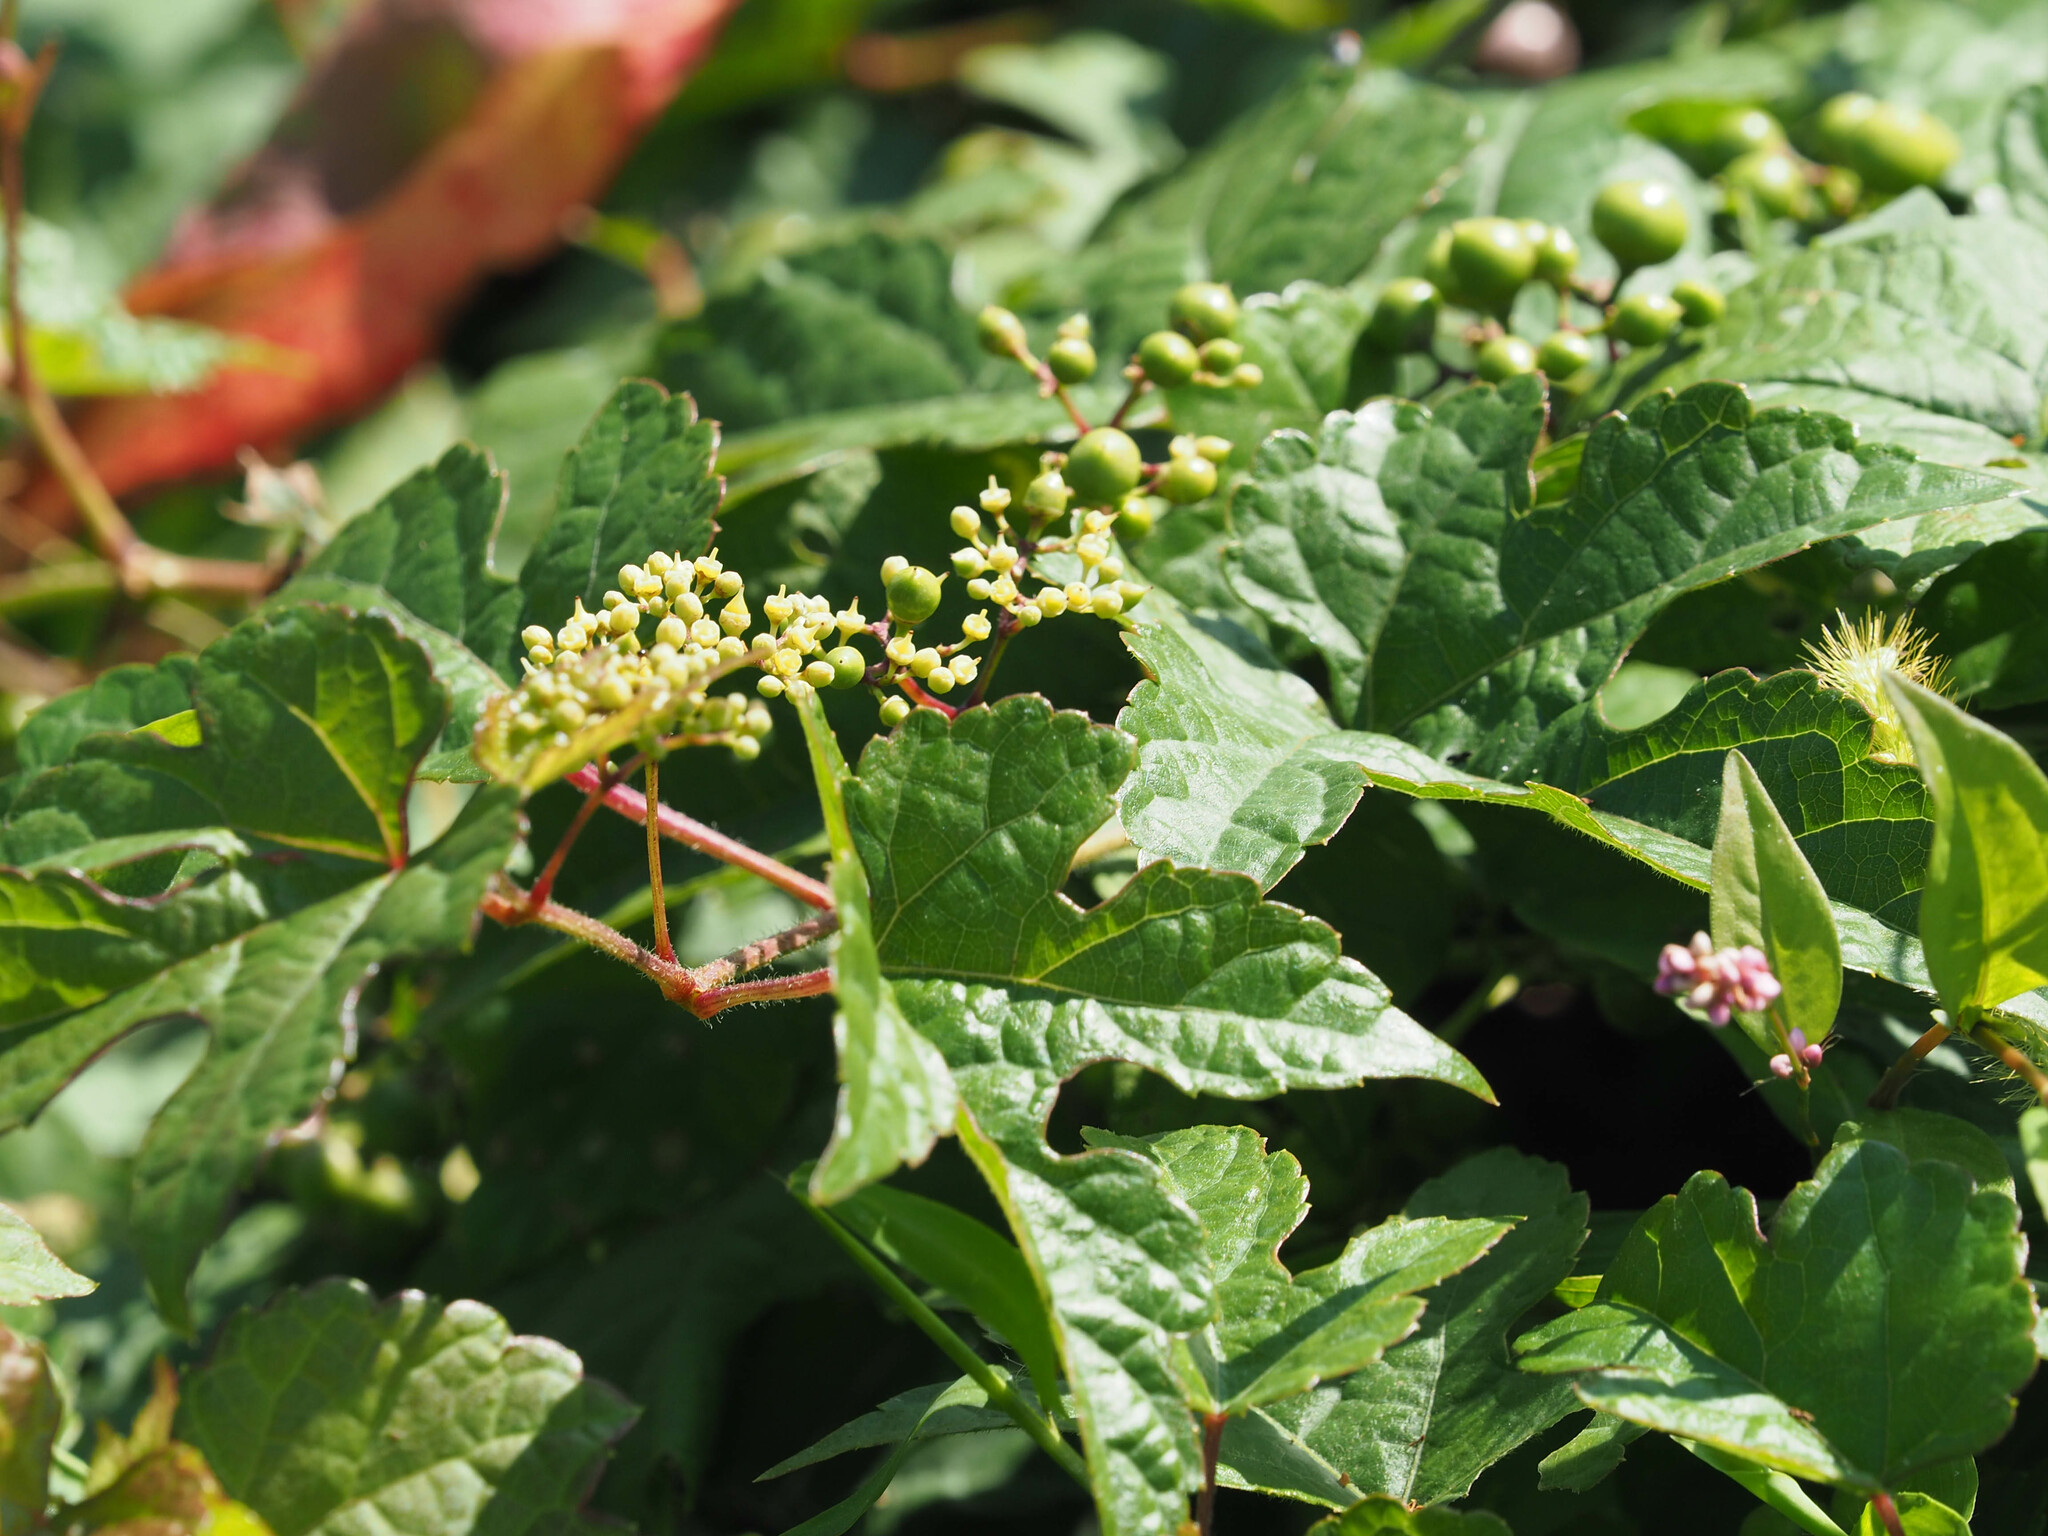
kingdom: Plantae
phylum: Tracheophyta
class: Magnoliopsida
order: Vitales
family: Vitaceae
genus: Ampelopsis
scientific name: Ampelopsis glandulosa
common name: Amur peppervine
